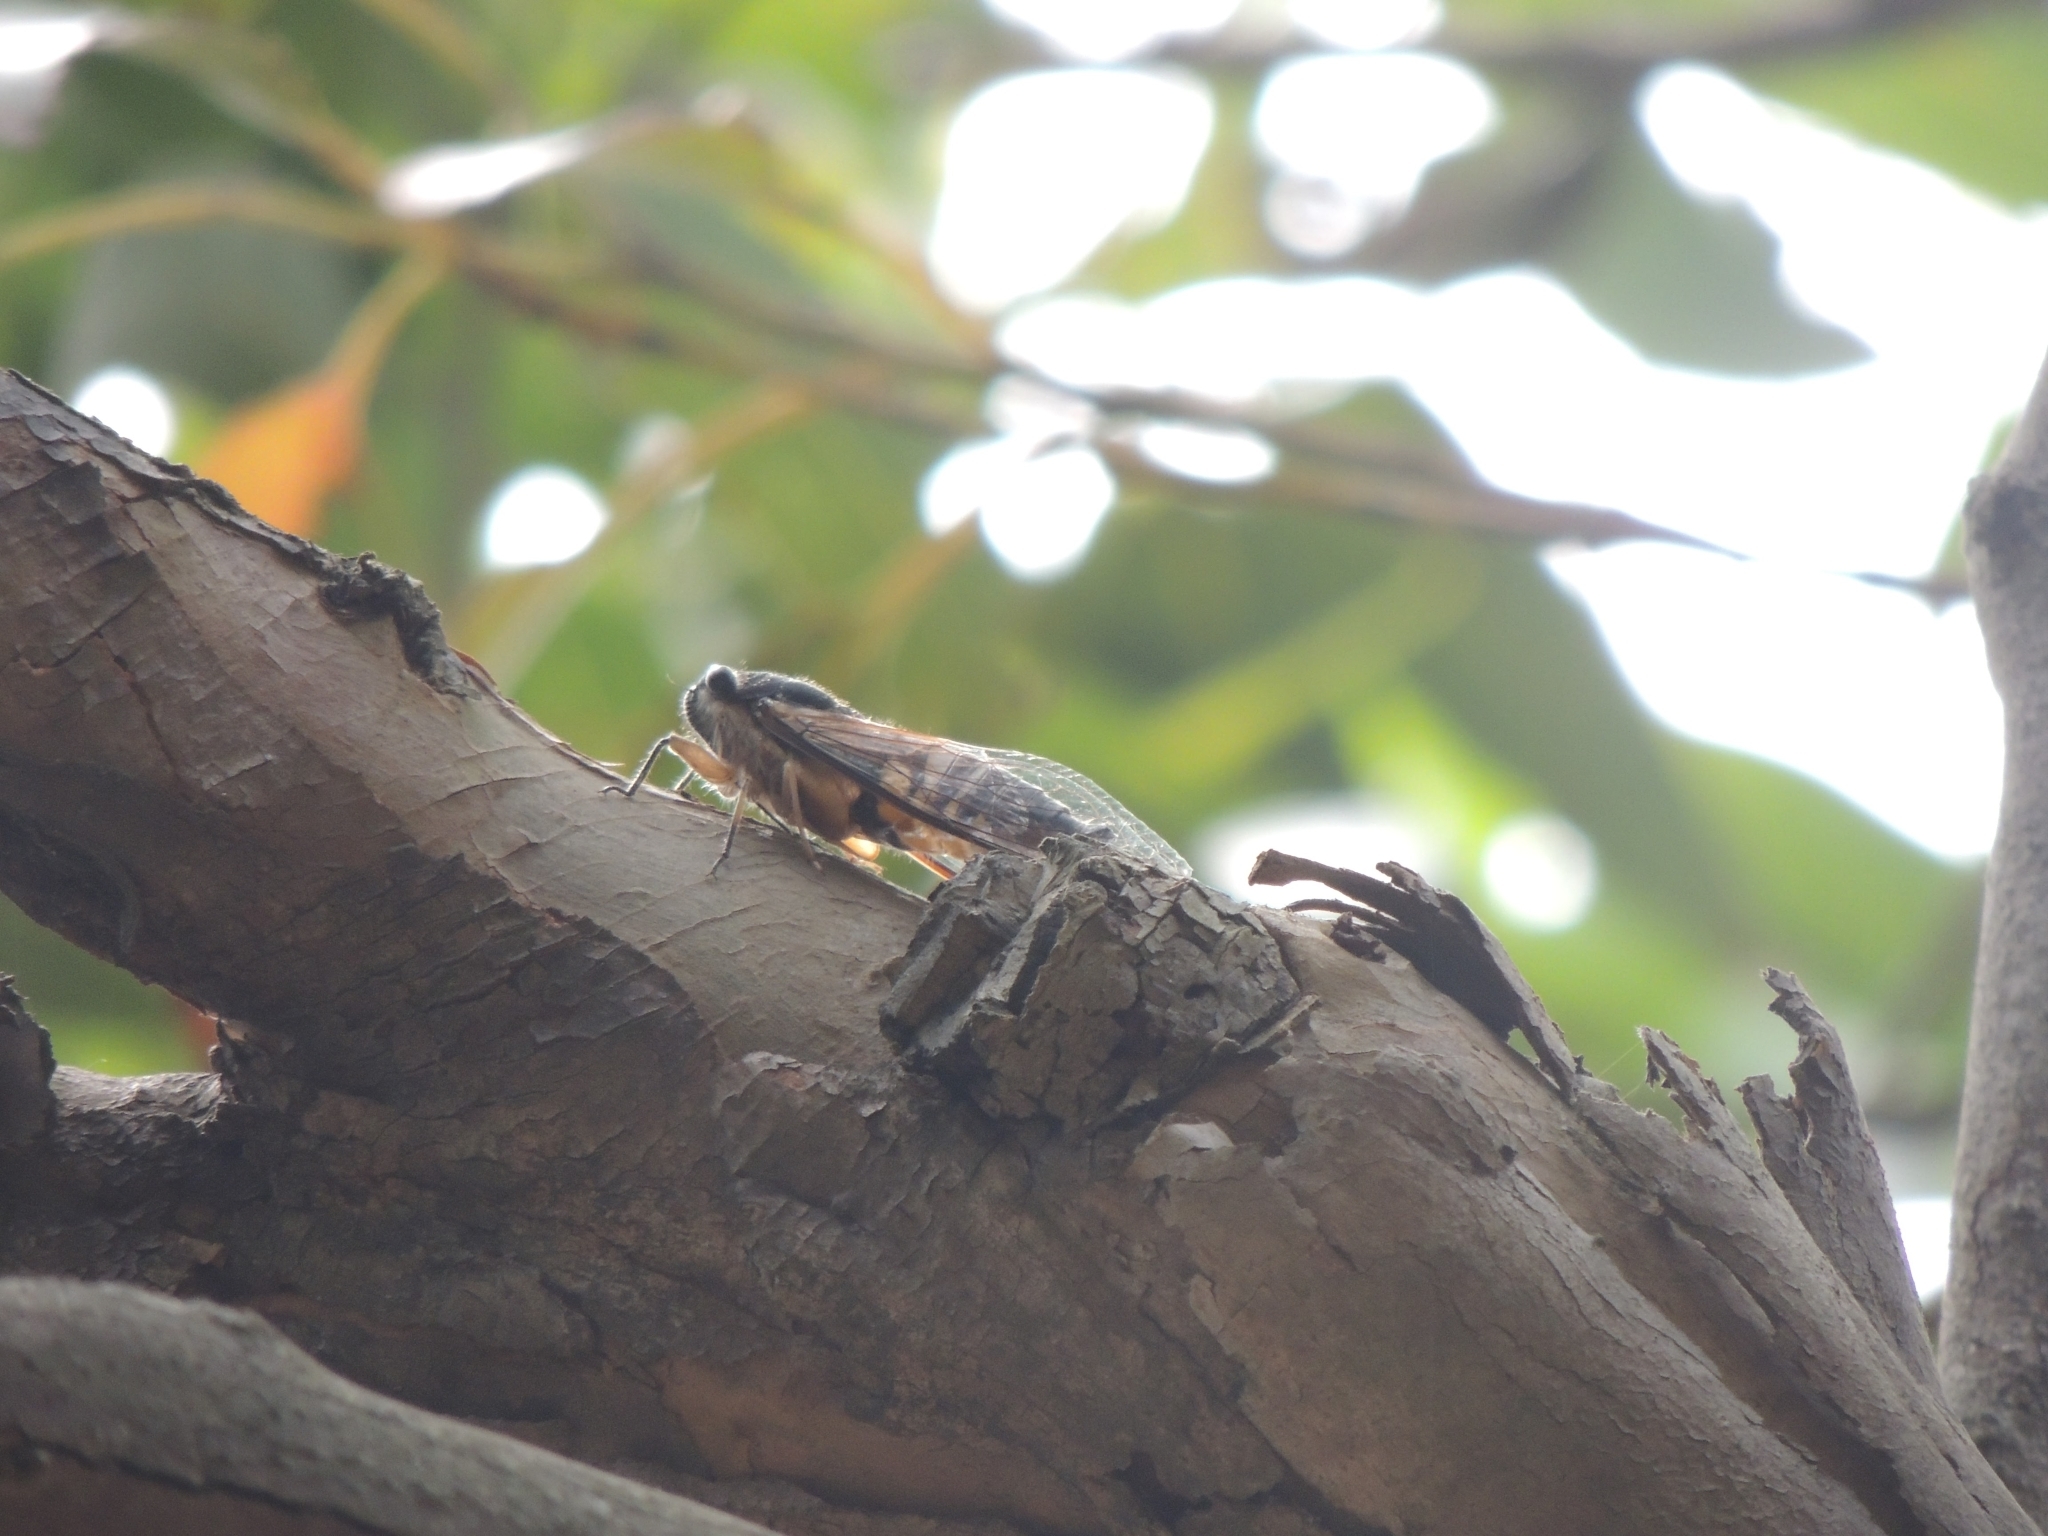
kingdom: Animalia
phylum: Arthropoda
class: Insecta
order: Hemiptera
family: Cicadidae
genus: Psaltoda
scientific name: Psaltoda harrisii
